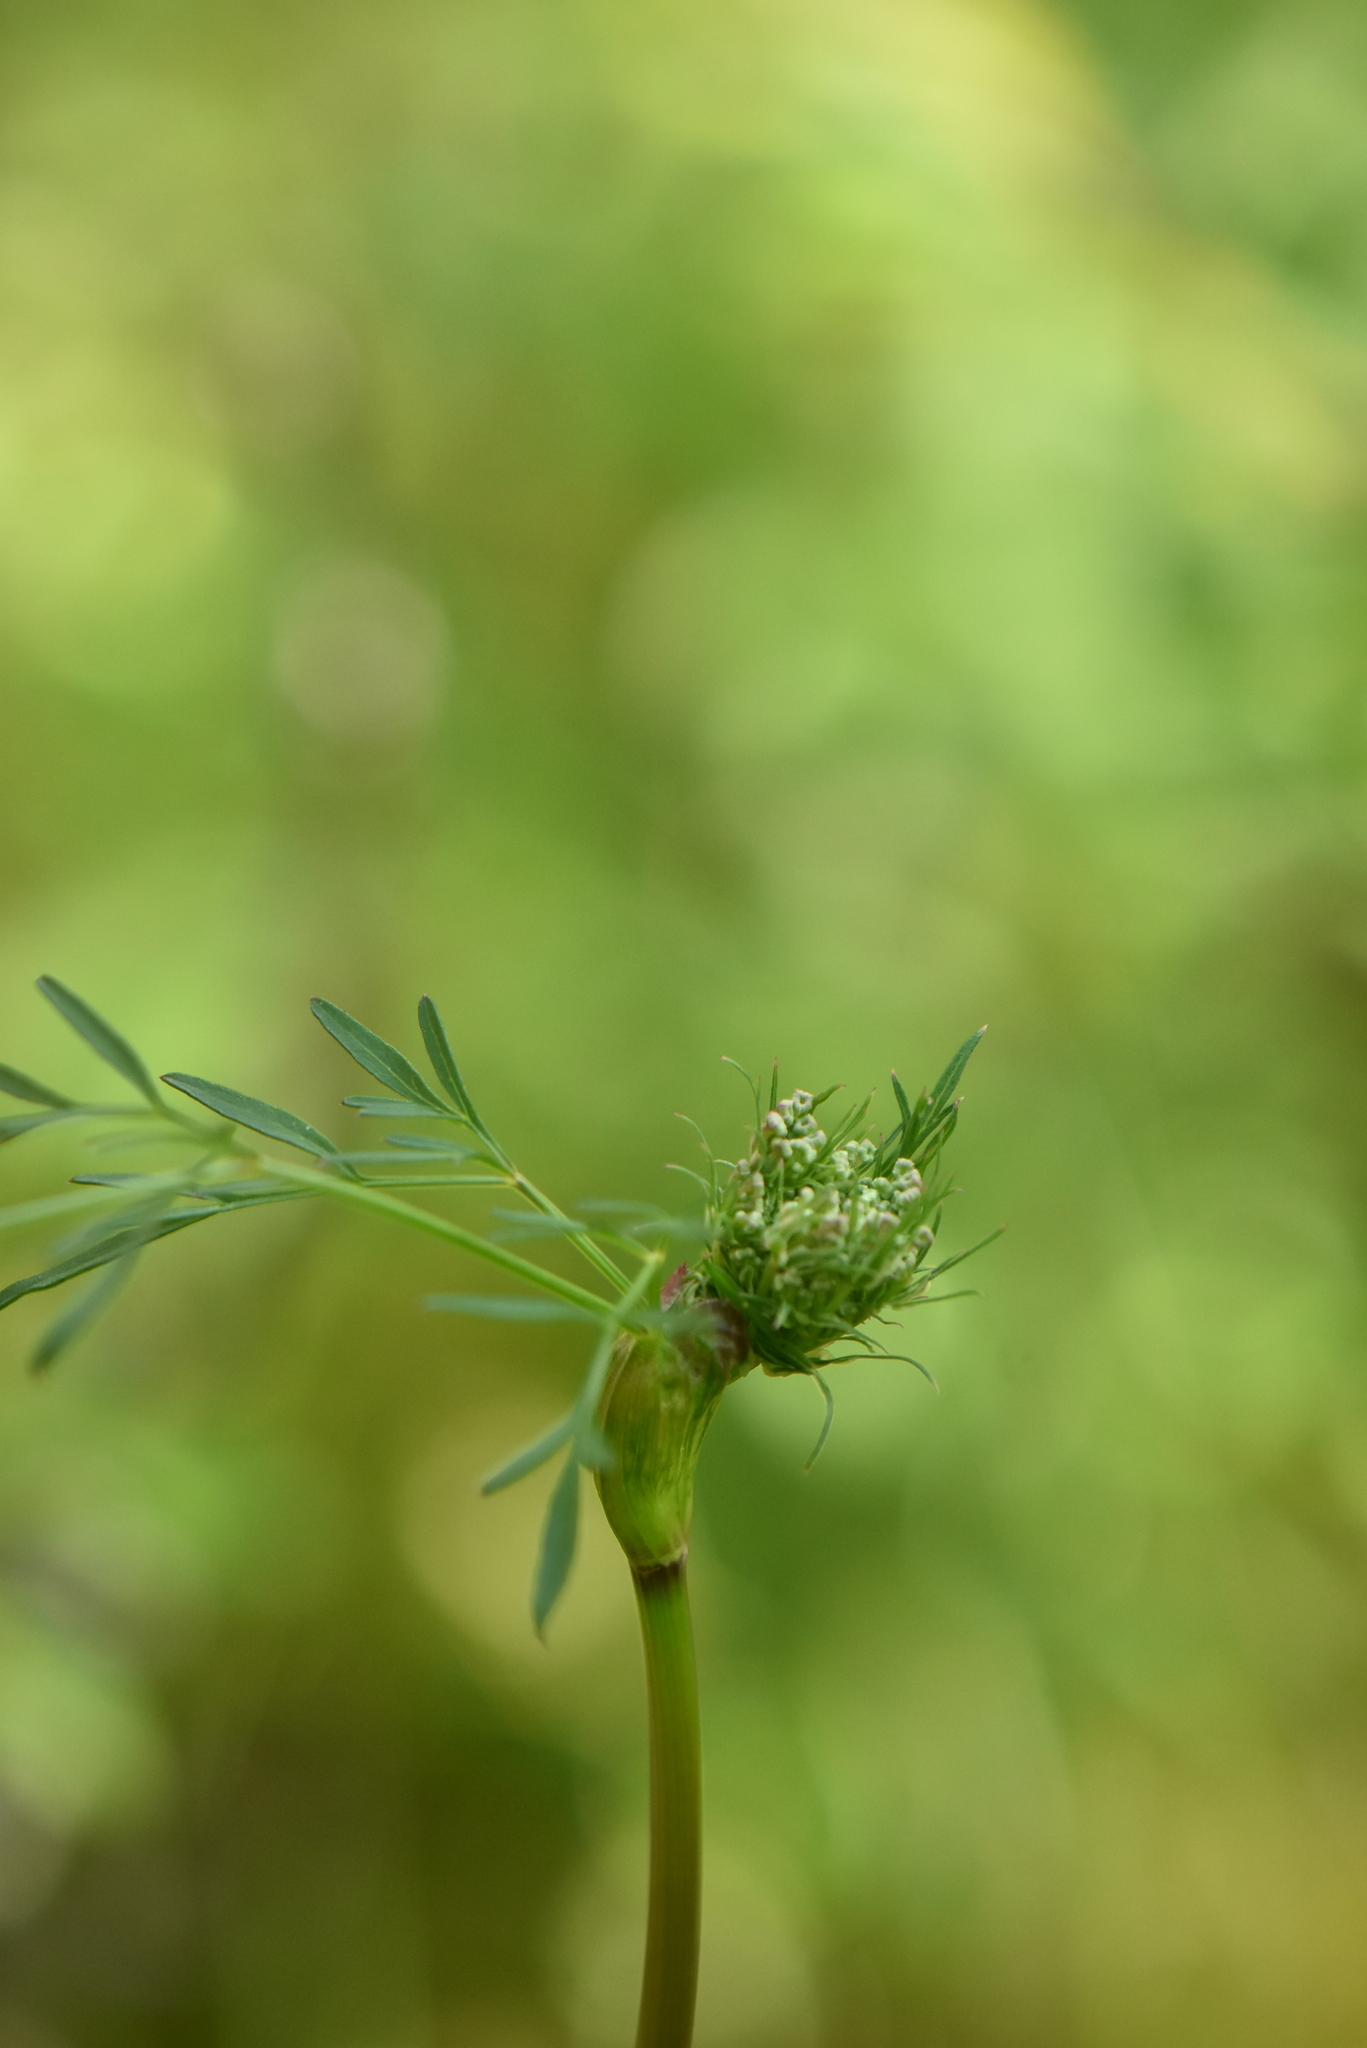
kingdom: Plantae
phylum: Tracheophyta
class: Magnoliopsida
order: Apiales
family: Apiaceae
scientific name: Apiaceae
